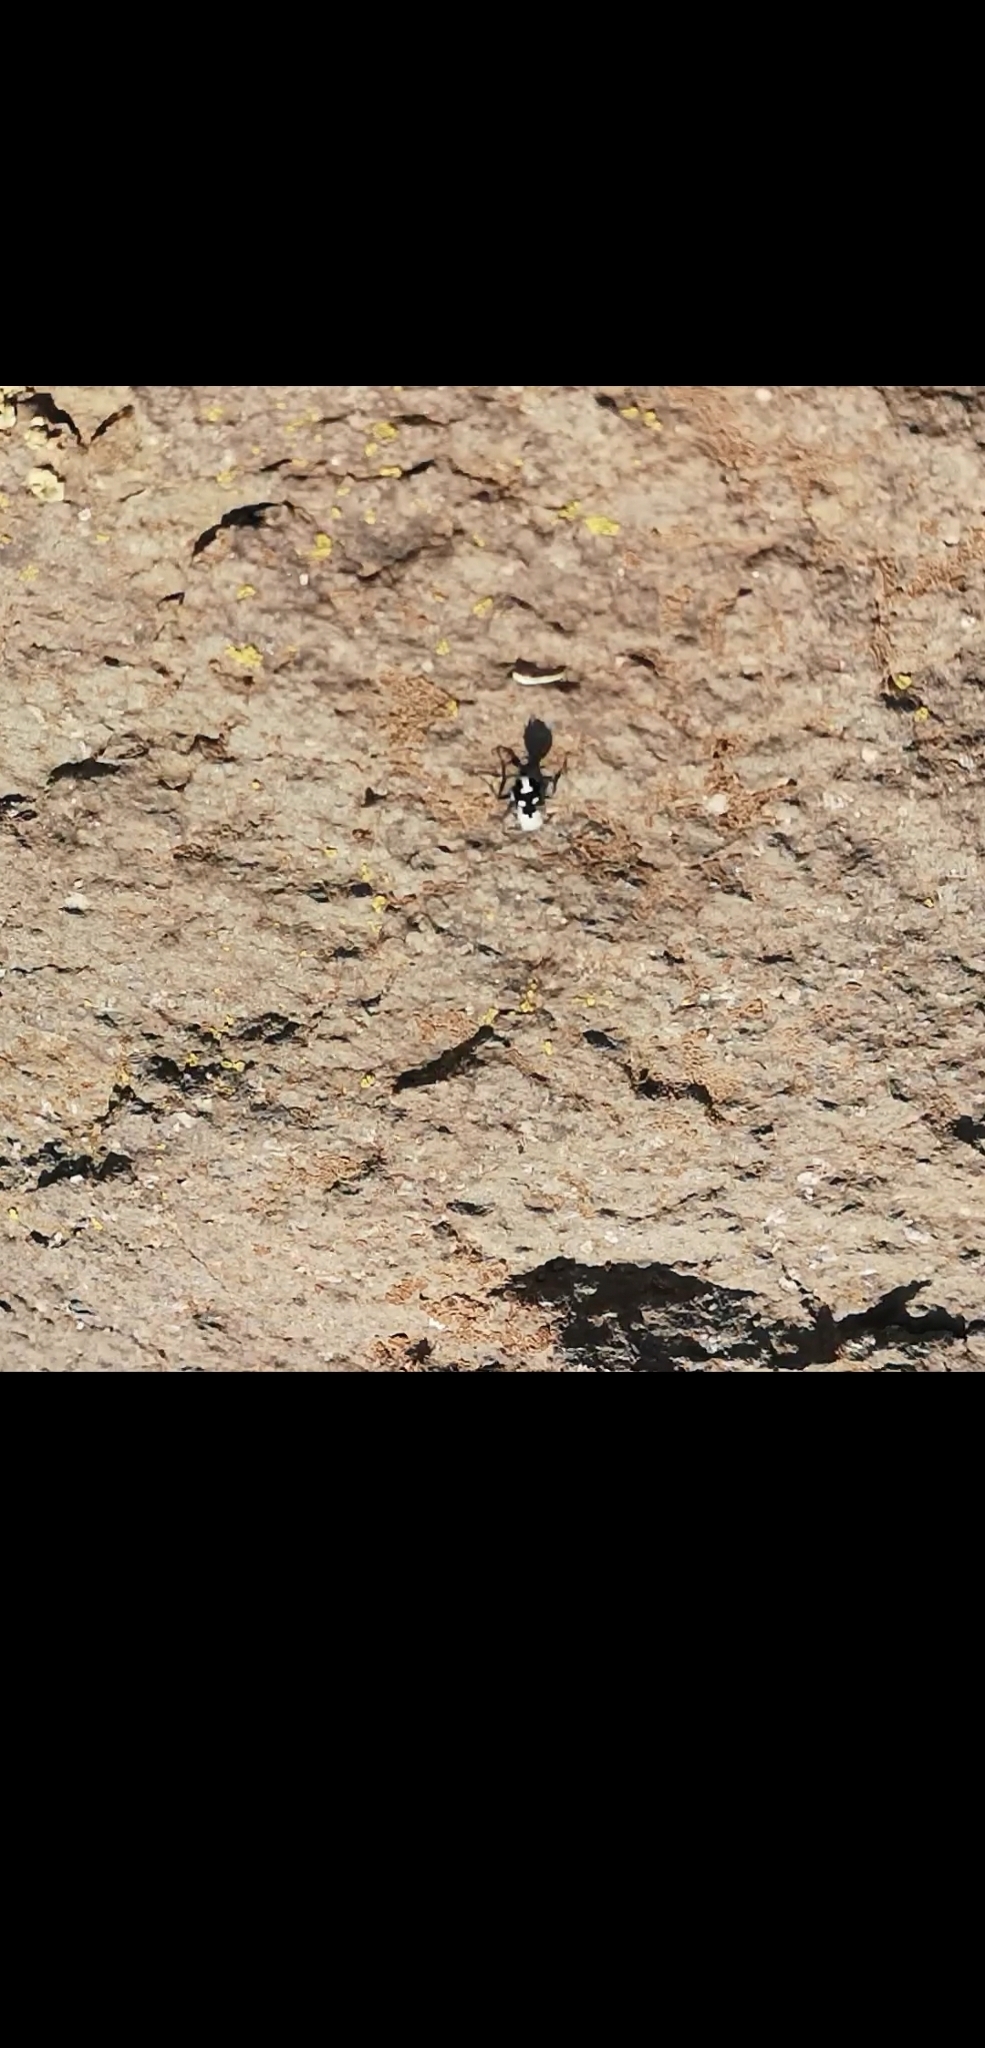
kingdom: Animalia
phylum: Arthropoda
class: Insecta
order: Hymenoptera
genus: Reedomutilla
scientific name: Reedomutilla
